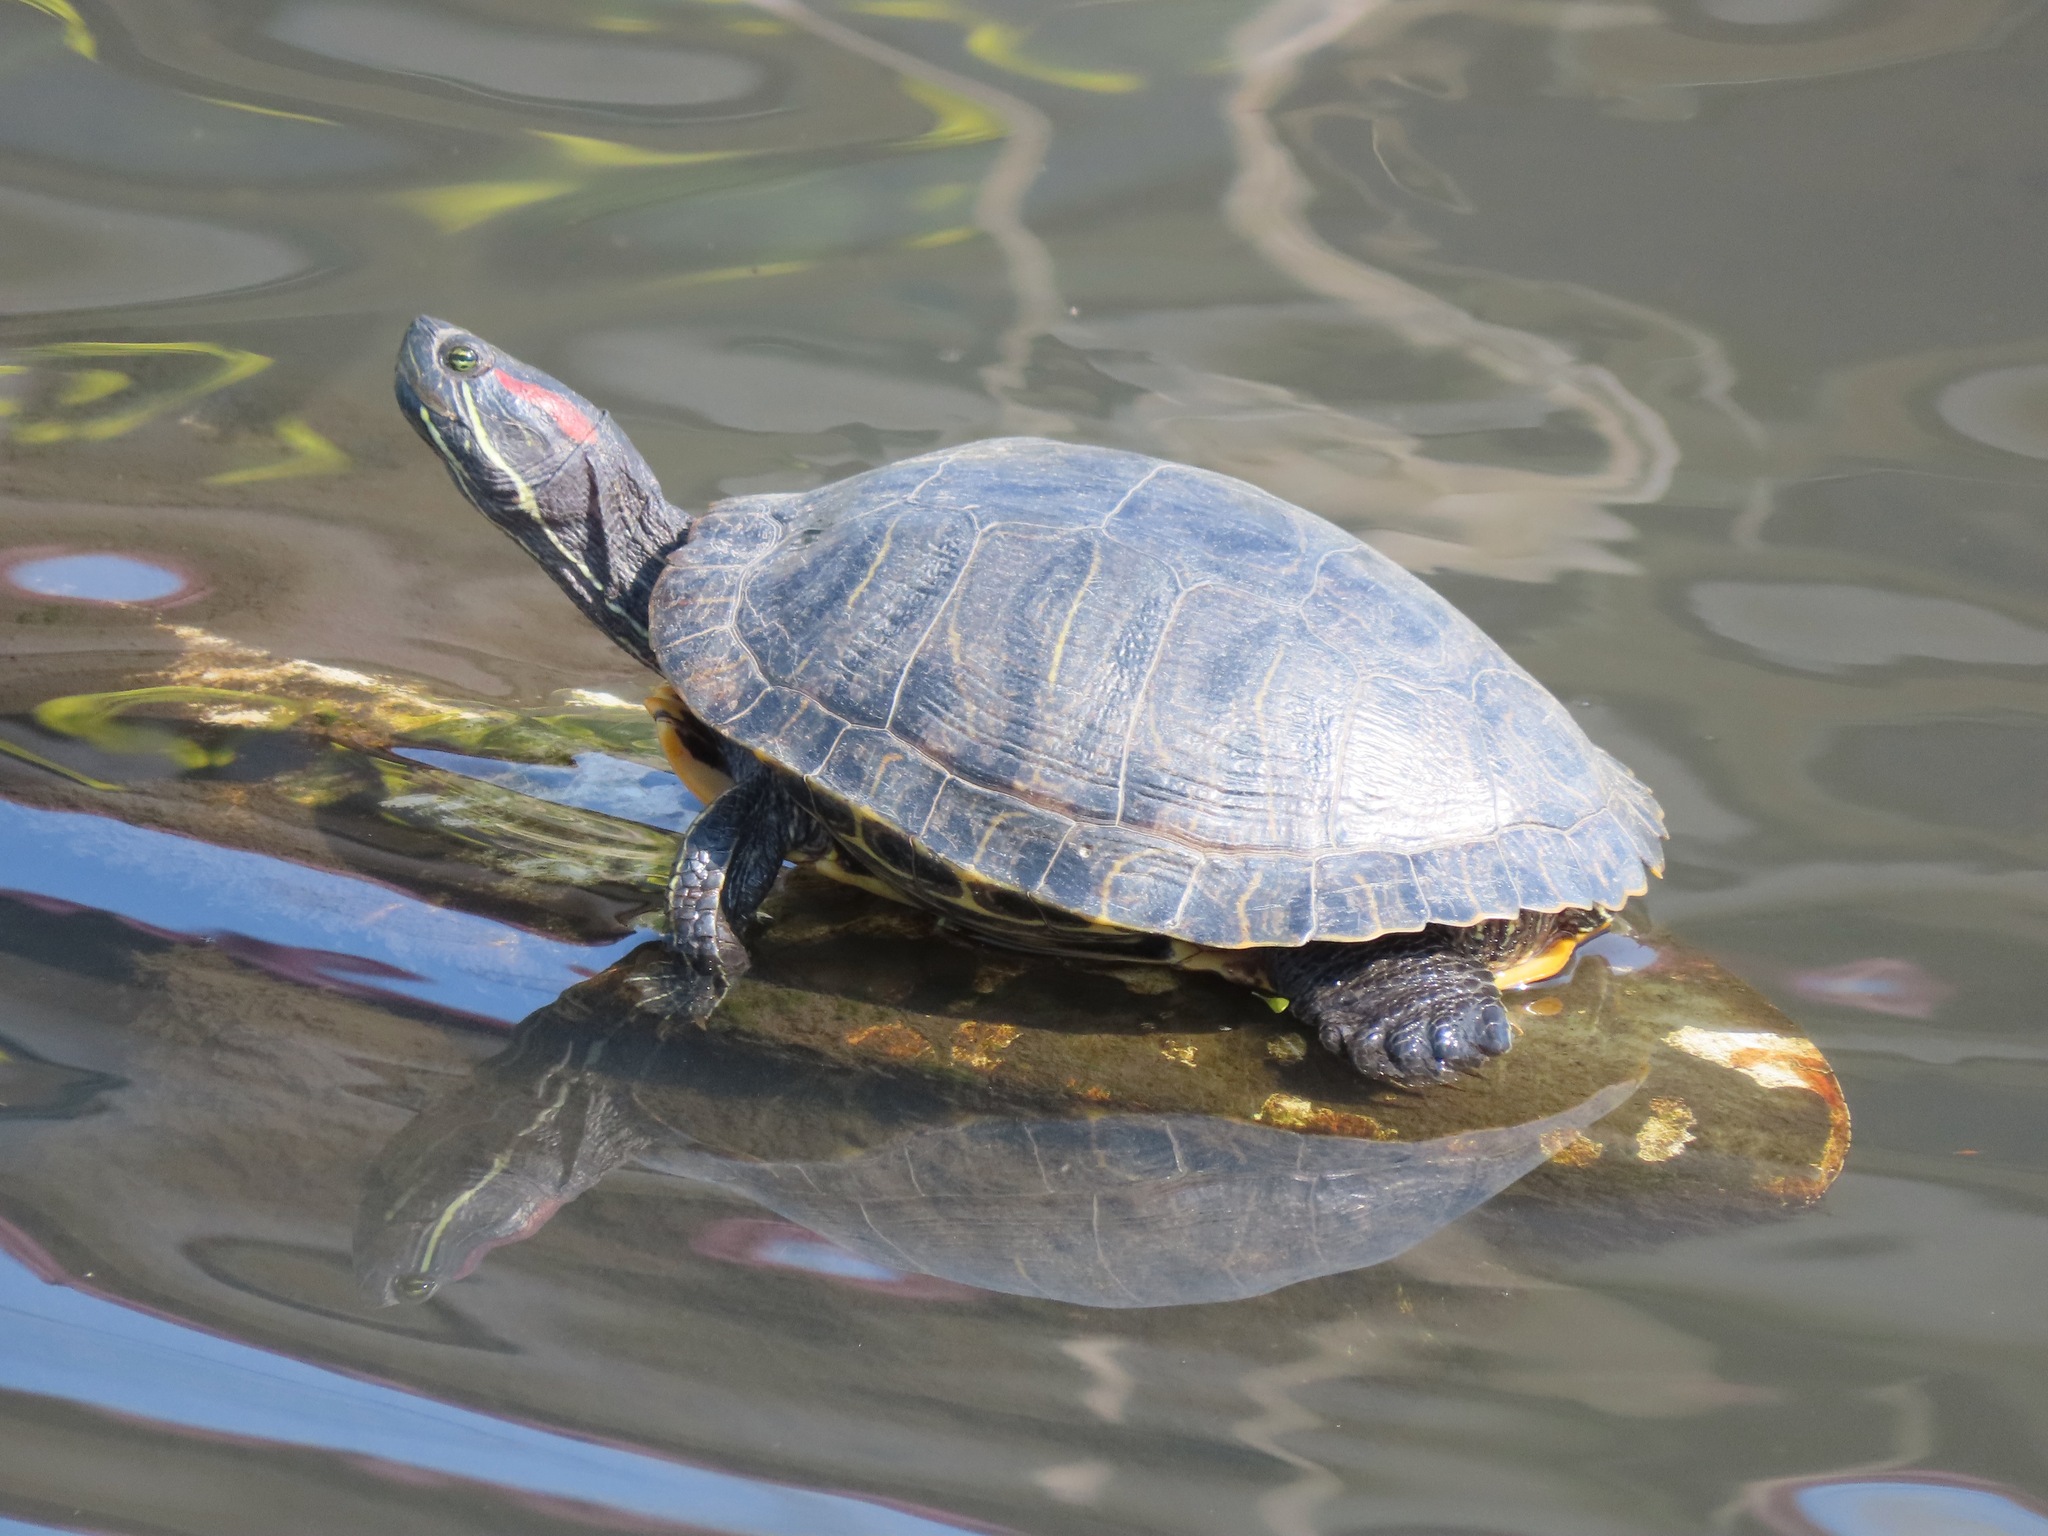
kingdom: Animalia
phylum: Chordata
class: Testudines
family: Emydidae
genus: Trachemys
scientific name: Trachemys scripta
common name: Slider
